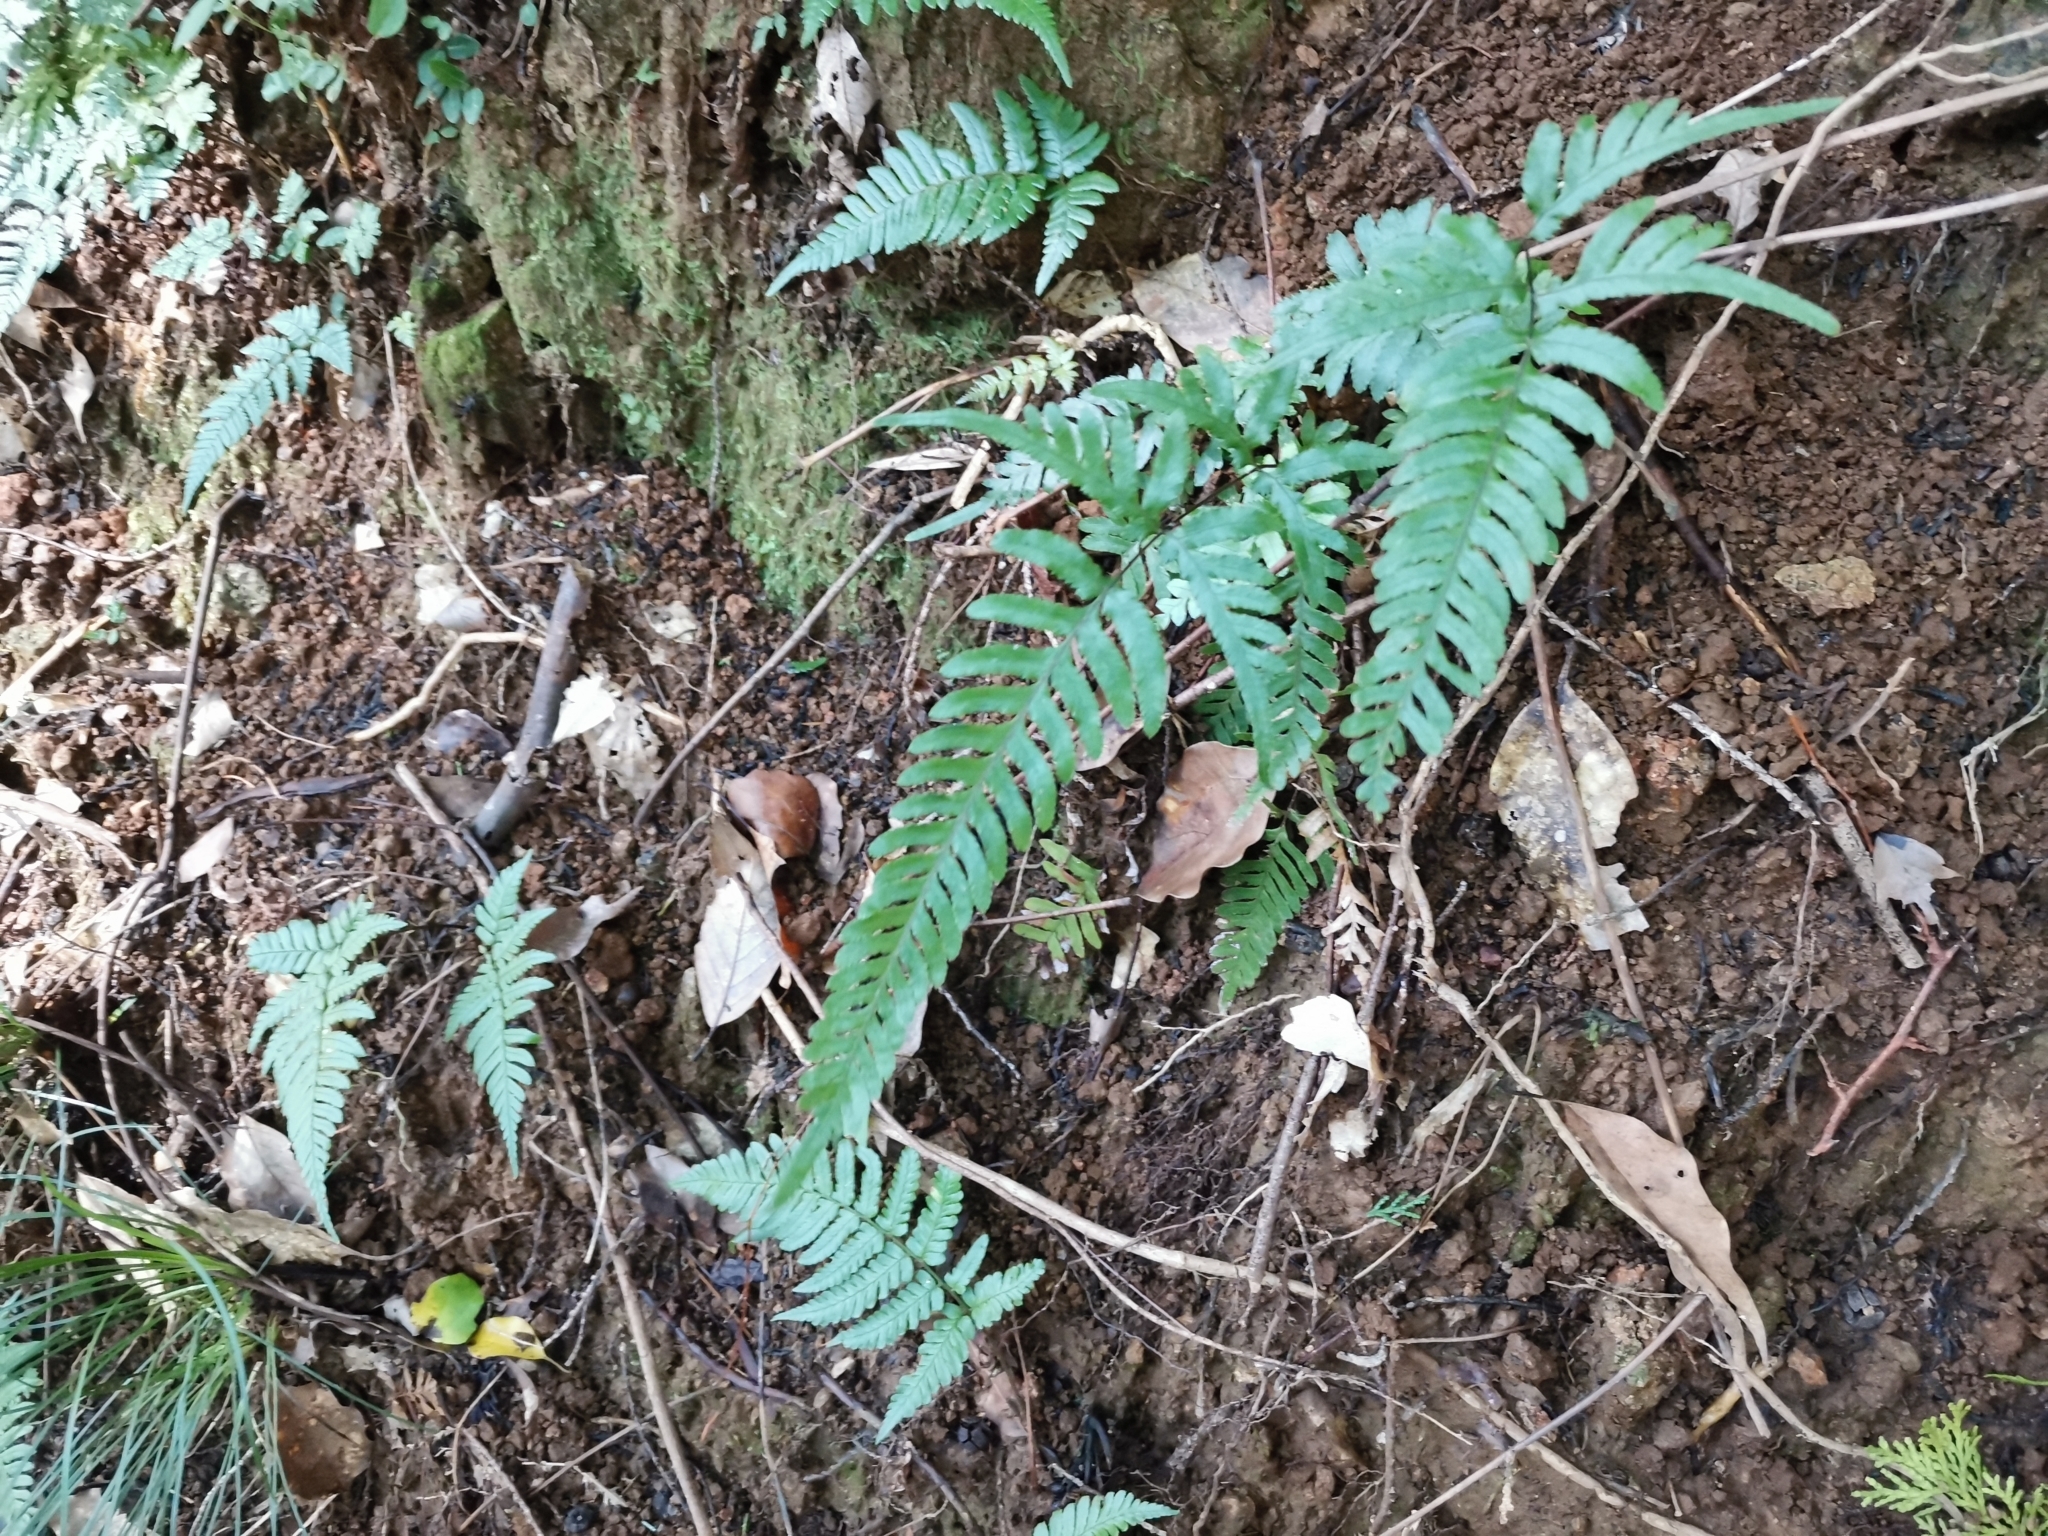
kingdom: Plantae
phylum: Tracheophyta
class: Polypodiopsida
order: Polypodiales
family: Pteridaceae
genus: Pteris
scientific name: Pteris dispar
